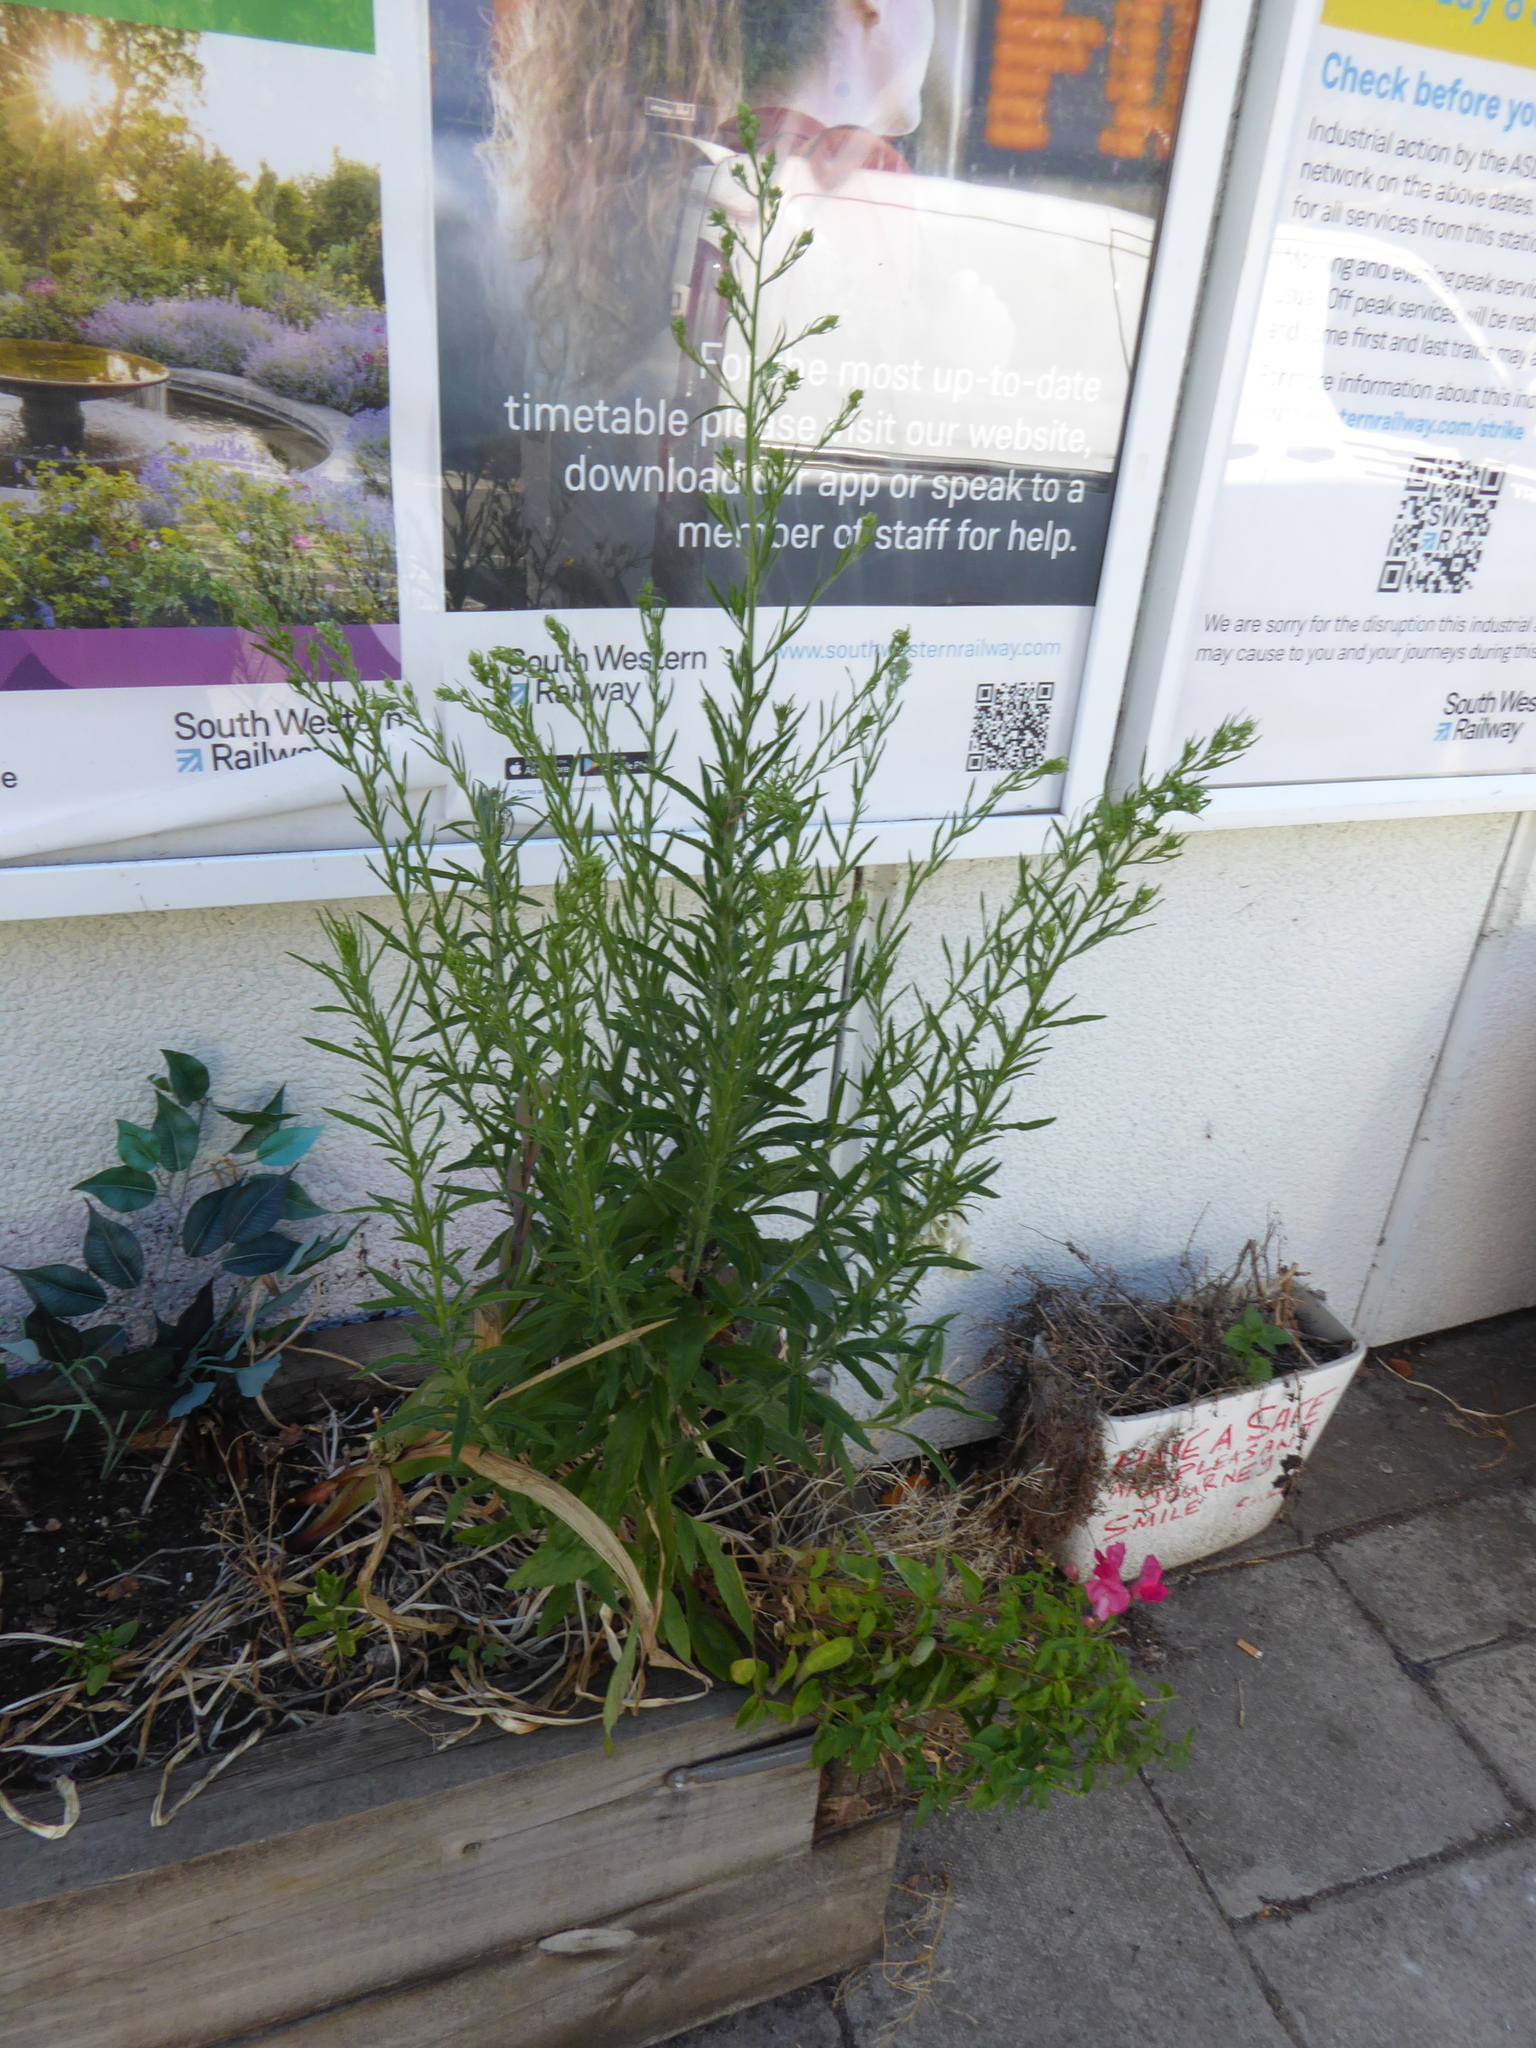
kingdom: Plantae
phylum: Tracheophyta
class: Magnoliopsida
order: Asterales
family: Asteraceae
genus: Erigeron
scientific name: Erigeron sumatrensis
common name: Daisy
